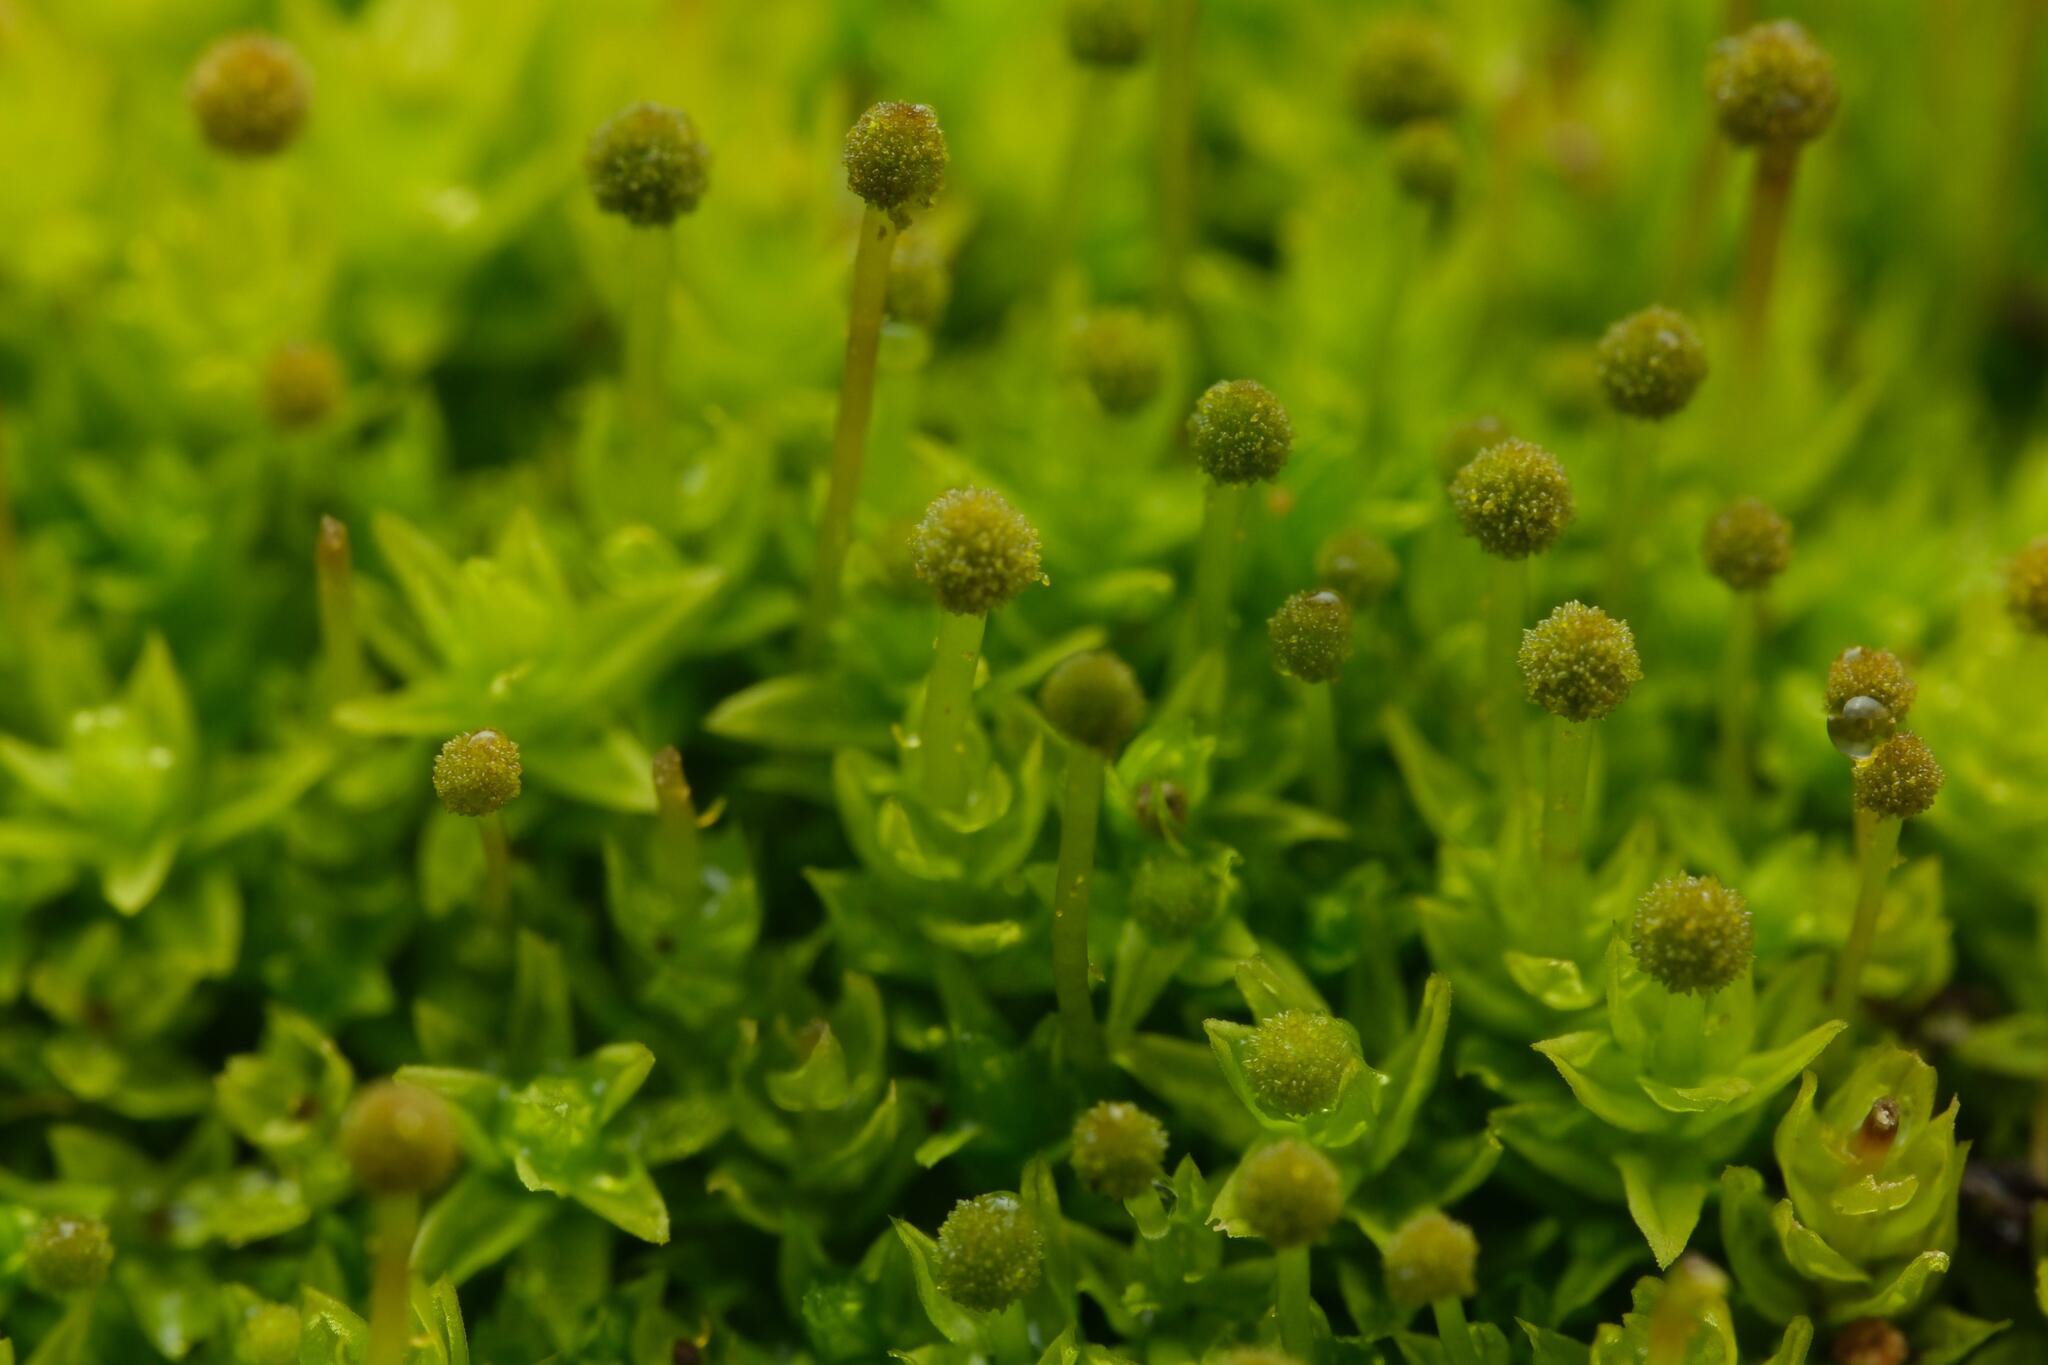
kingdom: Plantae
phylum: Bryophyta
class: Bryopsida
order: Aulacomniales
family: Aulacomniaceae
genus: Aulacomnium
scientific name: Aulacomnium androgynum
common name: Little groove moss
